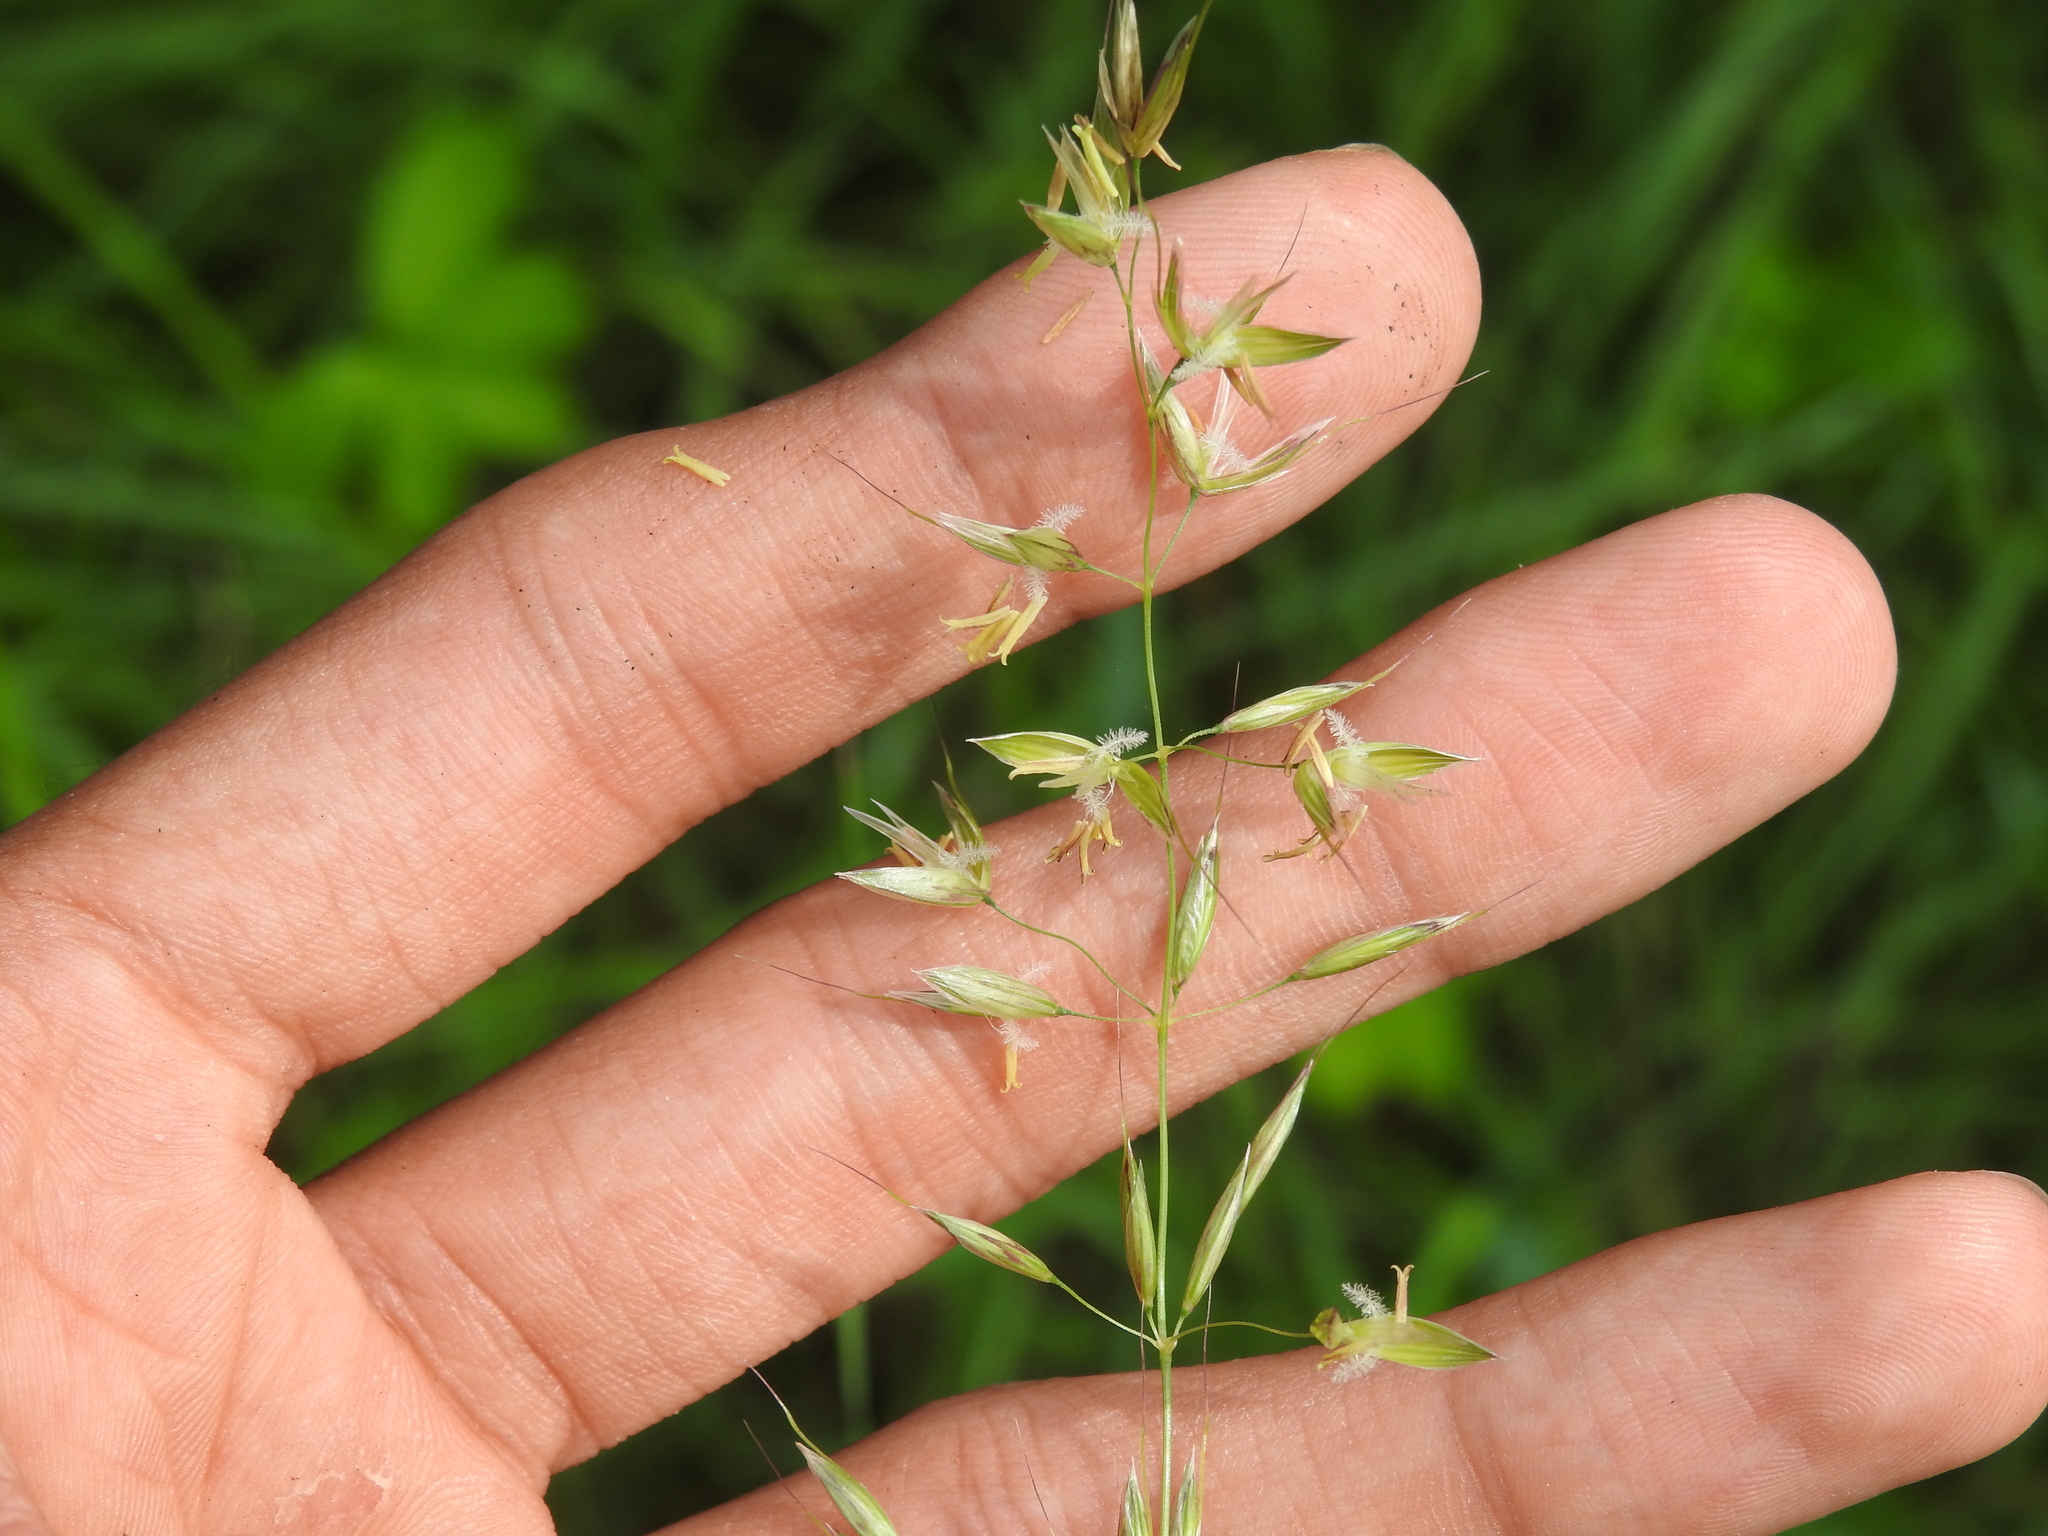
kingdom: Plantae
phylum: Tracheophyta
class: Liliopsida
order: Poales
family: Poaceae
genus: Arrhenatherum
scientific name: Arrhenatherum elatius
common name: Tall oatgrass
